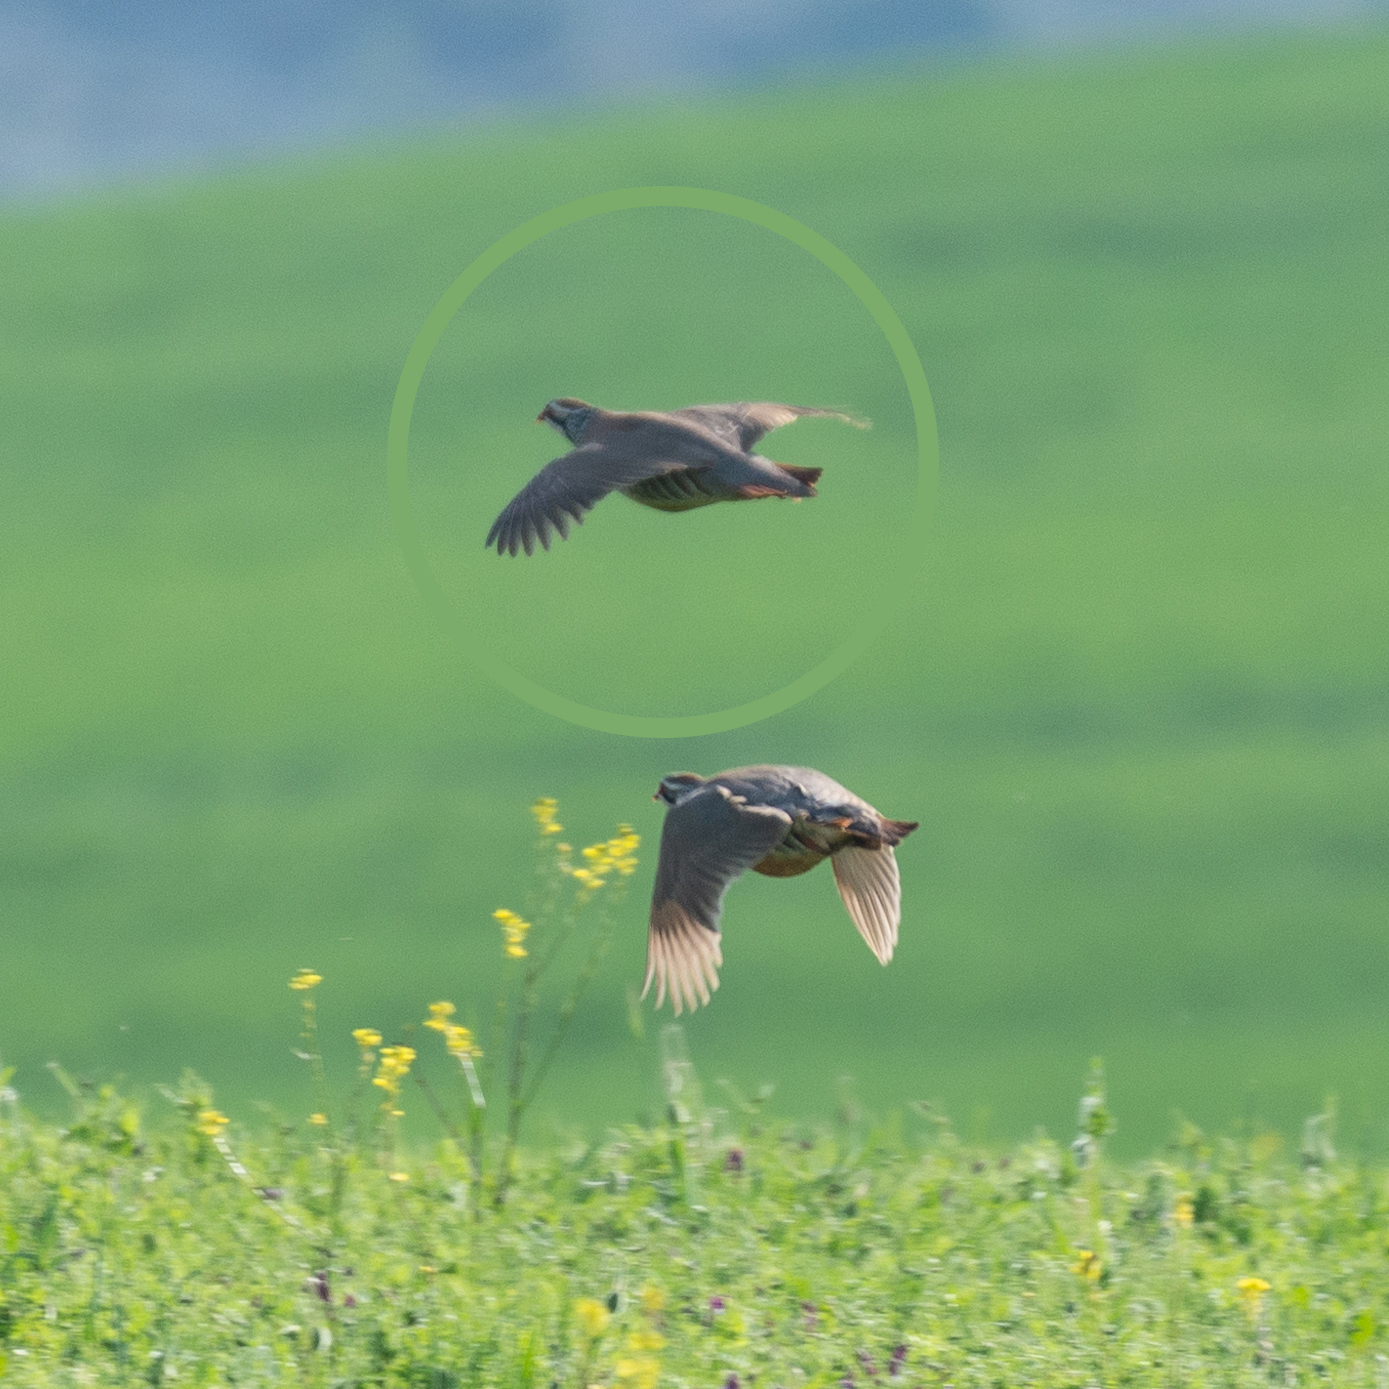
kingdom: Animalia
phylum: Chordata
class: Aves
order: Galliformes
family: Phasianidae
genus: Alectoris
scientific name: Alectoris rufa
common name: Red-legged partridge
